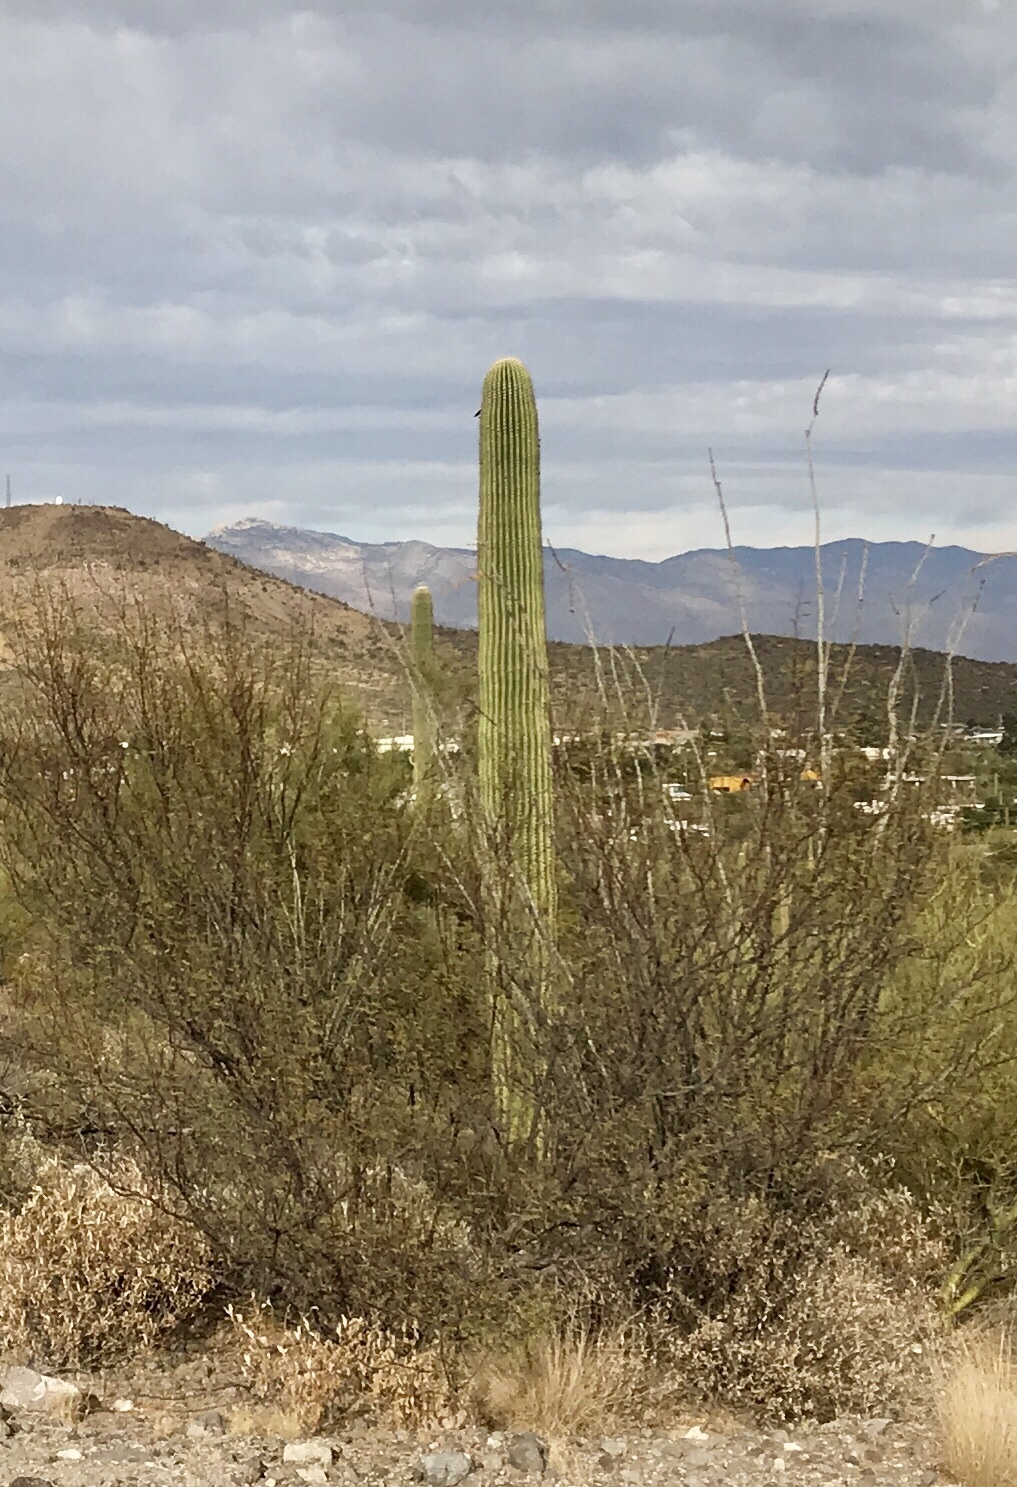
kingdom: Plantae
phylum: Tracheophyta
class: Magnoliopsida
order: Caryophyllales
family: Cactaceae
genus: Carnegiea
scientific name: Carnegiea gigantea
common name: Saguaro
